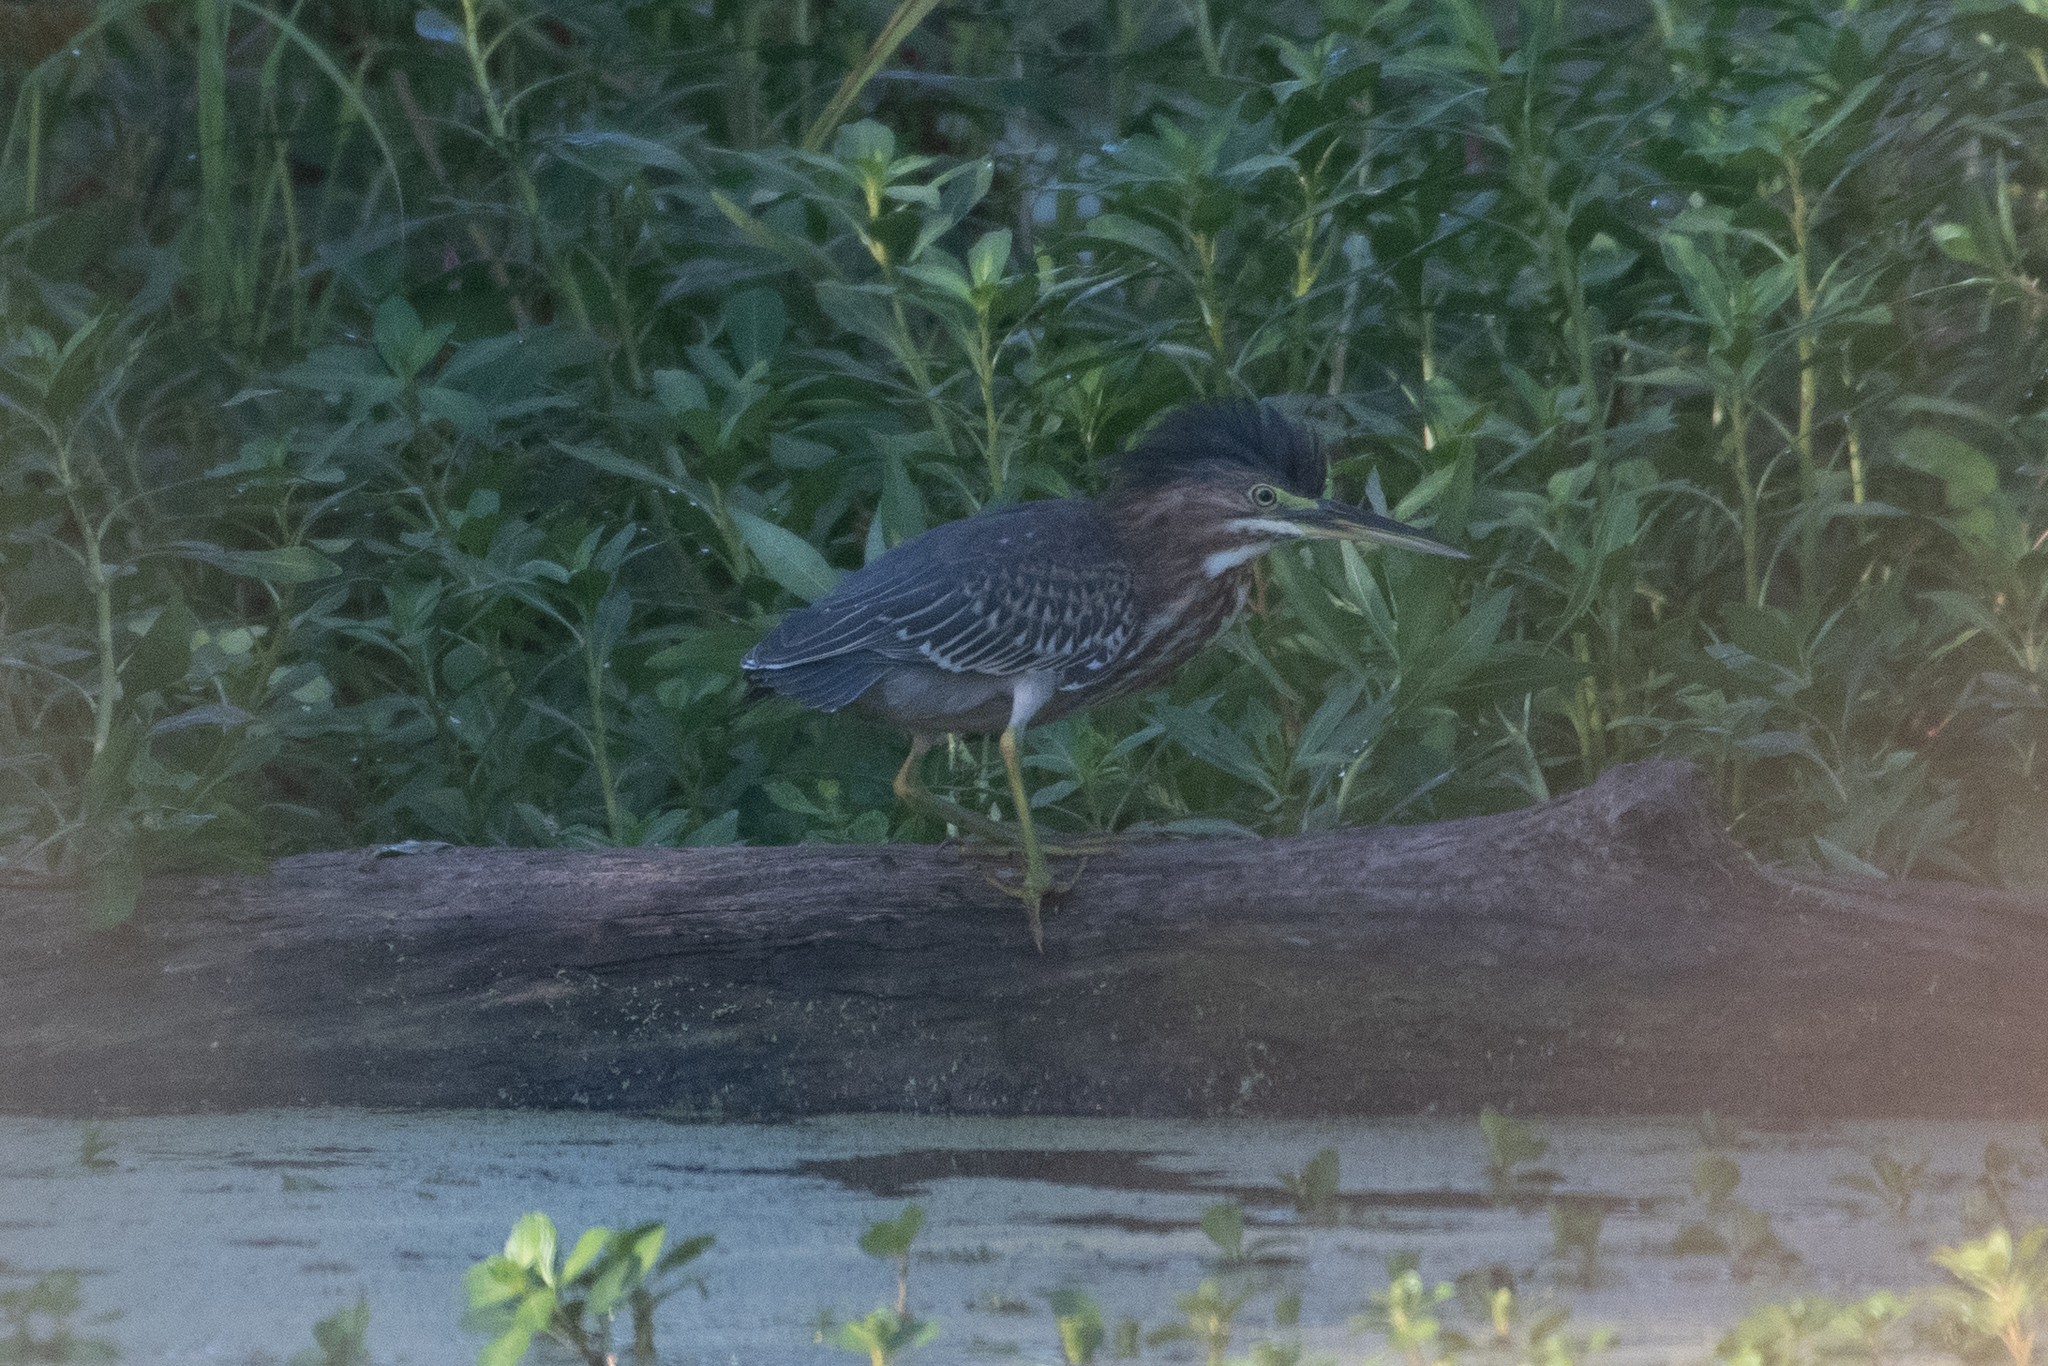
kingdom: Animalia
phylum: Chordata
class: Aves
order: Pelecaniformes
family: Ardeidae
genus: Butorides
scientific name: Butorides virescens
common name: Green heron
